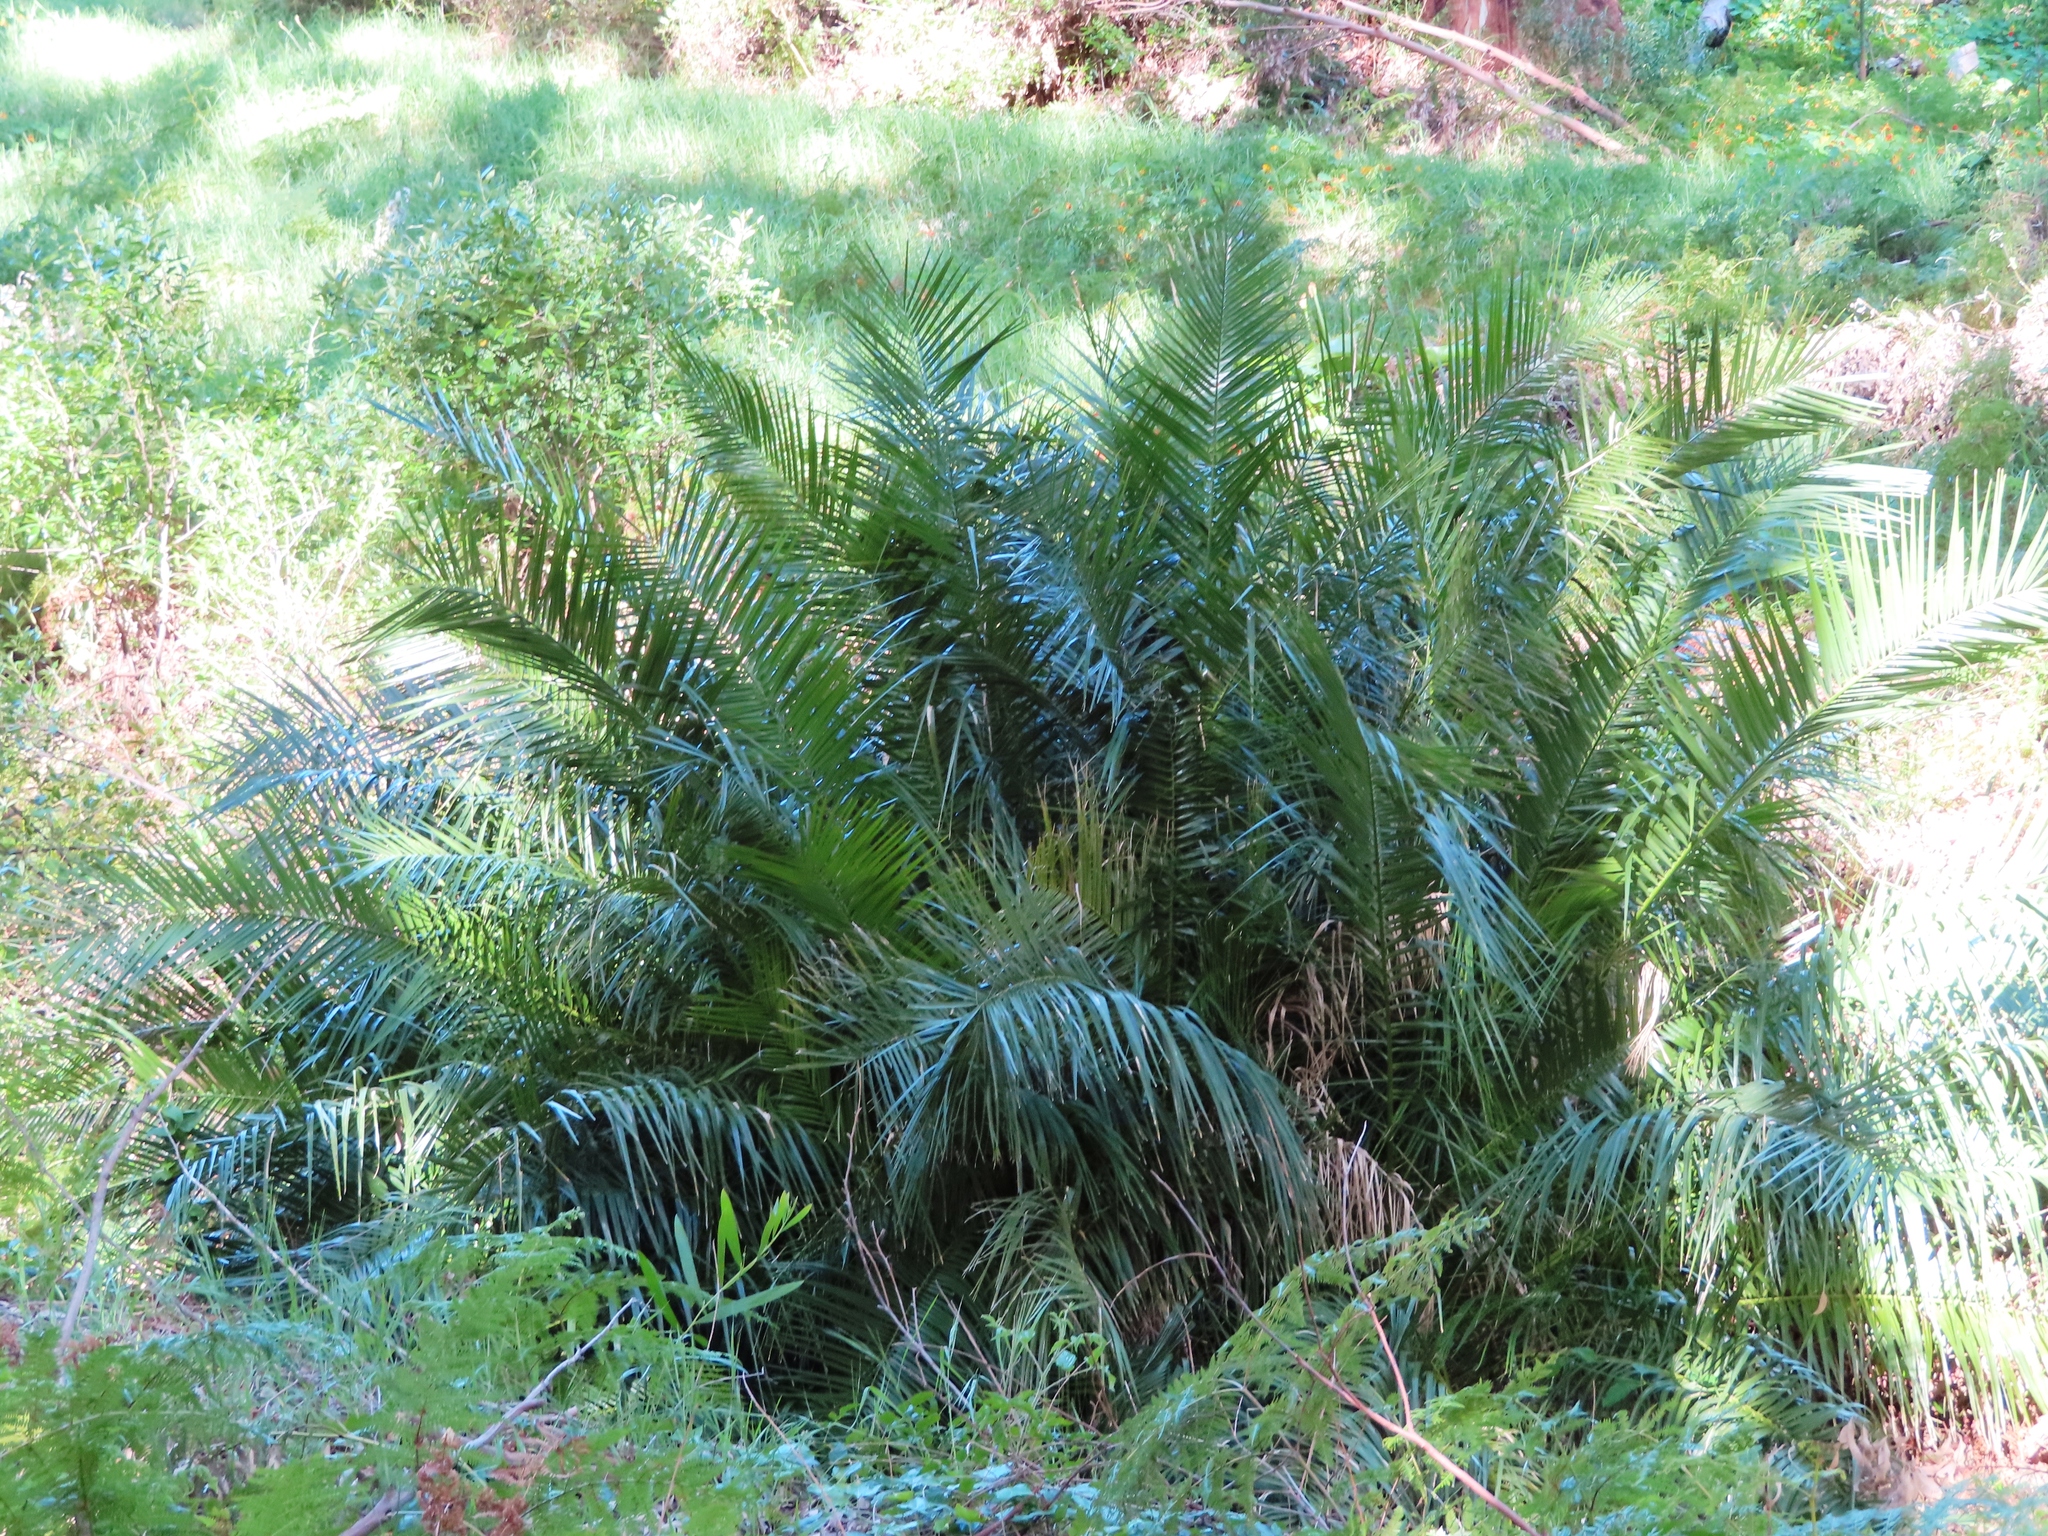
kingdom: Plantae
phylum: Tracheophyta
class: Liliopsida
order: Arecales
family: Arecaceae
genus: Phoenix
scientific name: Phoenix reclinata
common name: Senegal date palm
